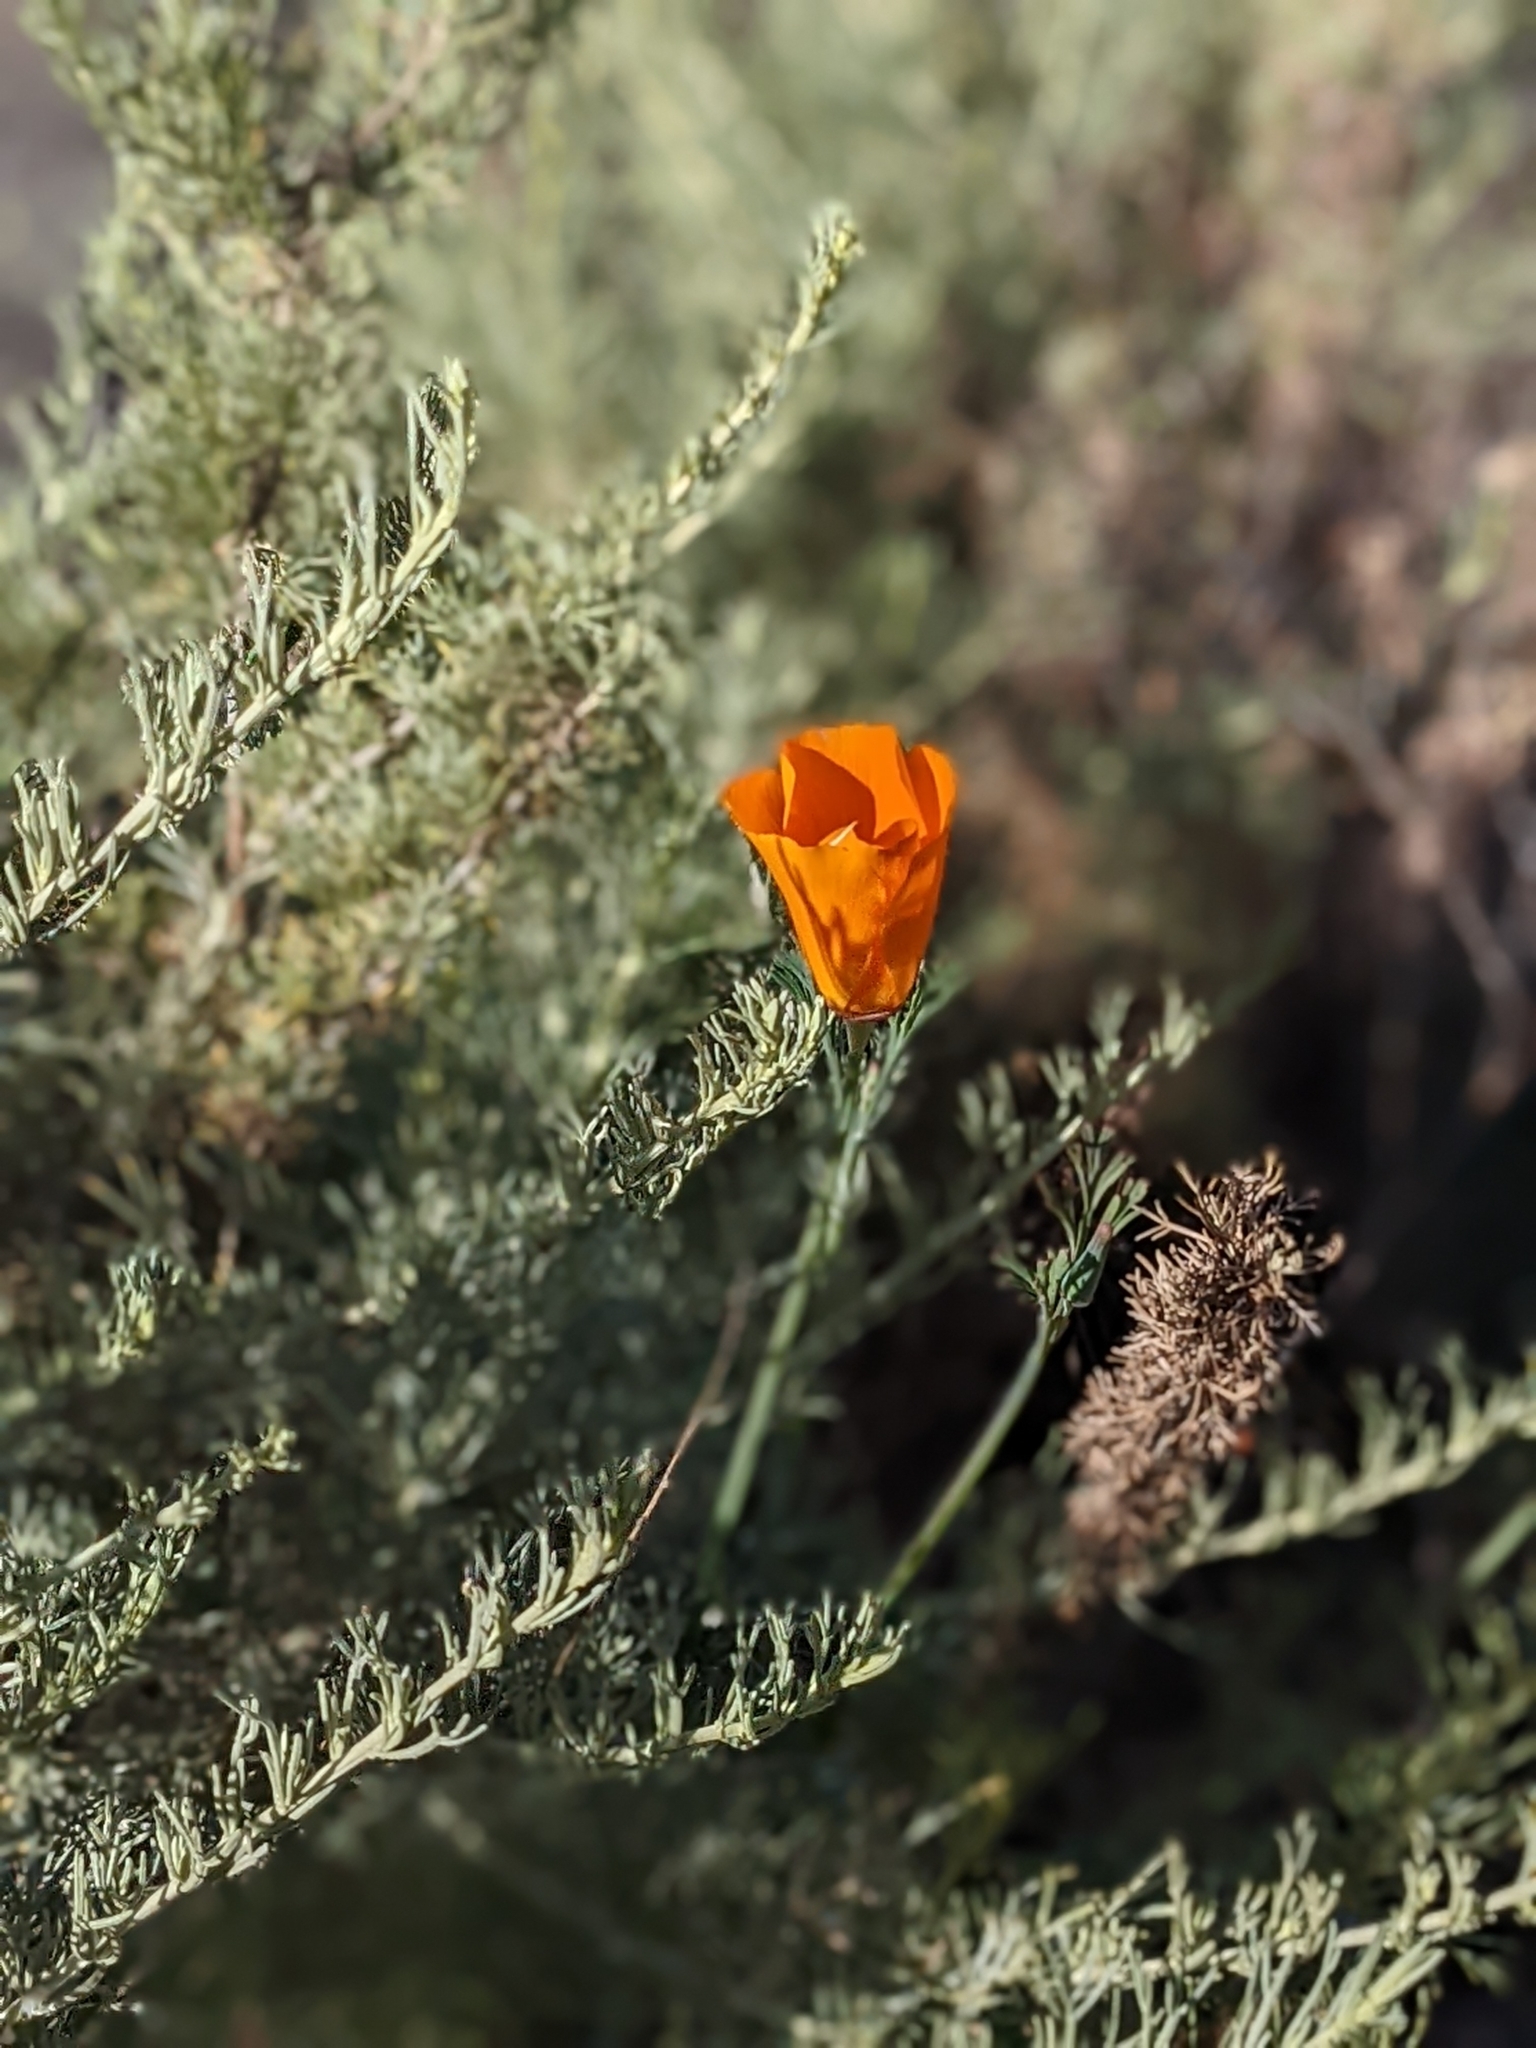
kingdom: Plantae
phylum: Tracheophyta
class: Magnoliopsida
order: Ranunculales
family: Papaveraceae
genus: Eschscholzia
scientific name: Eschscholzia californica
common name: California poppy
